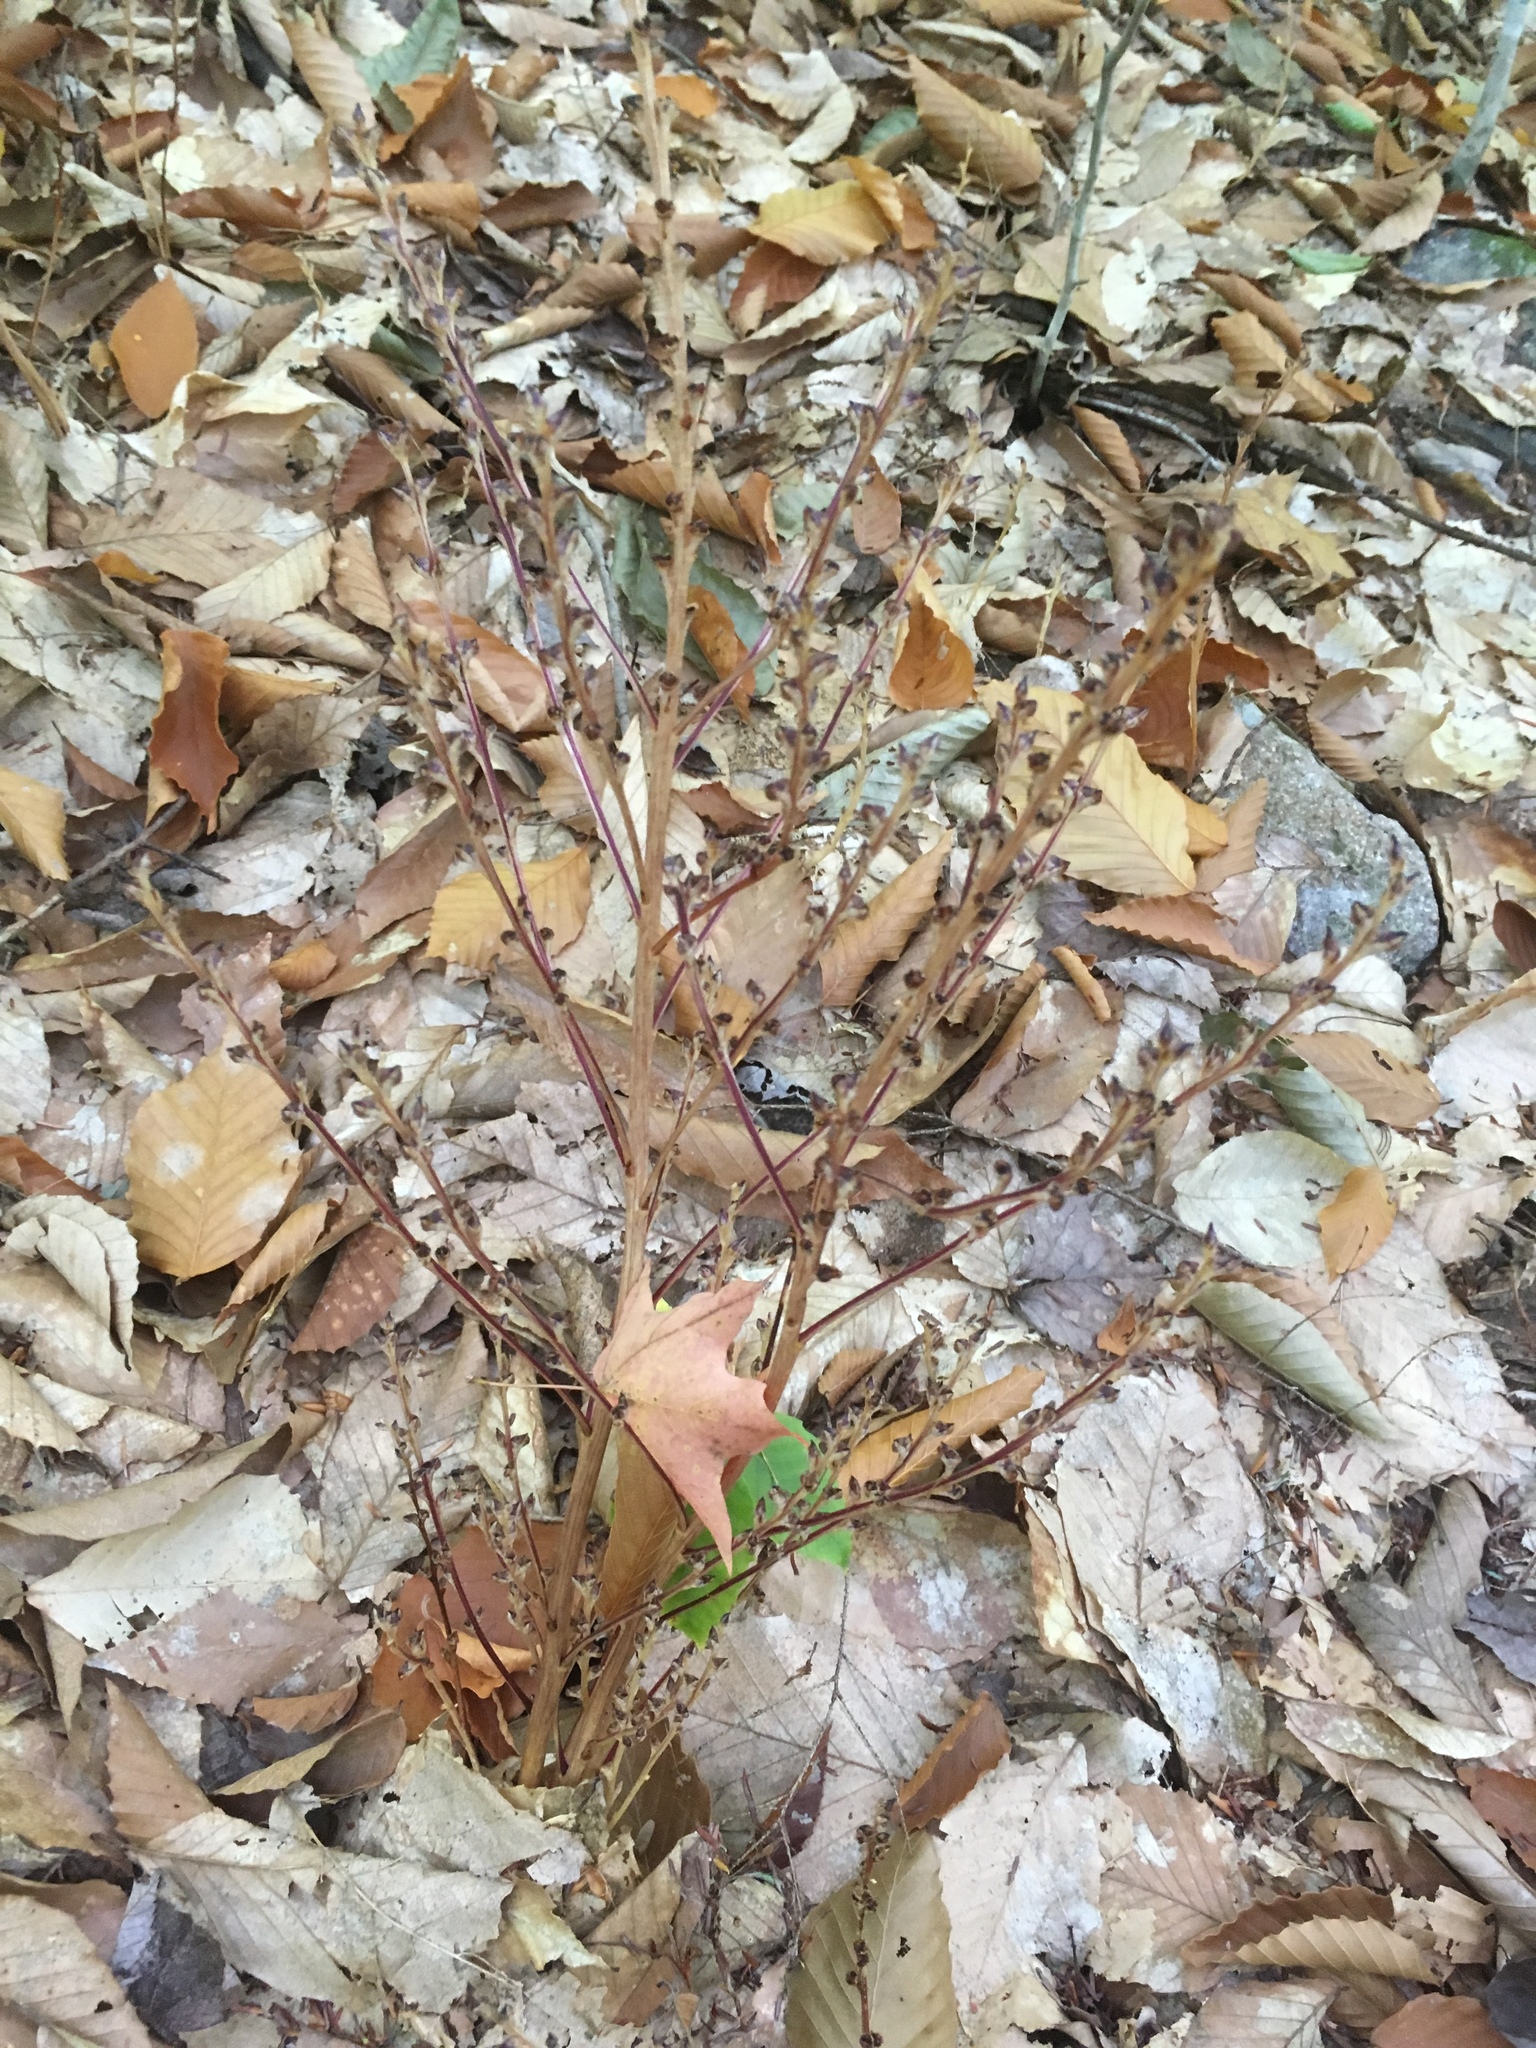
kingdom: Plantae
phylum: Tracheophyta
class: Magnoliopsida
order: Lamiales
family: Orobanchaceae
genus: Epifagus
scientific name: Epifagus virginiana
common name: Beechdrops
